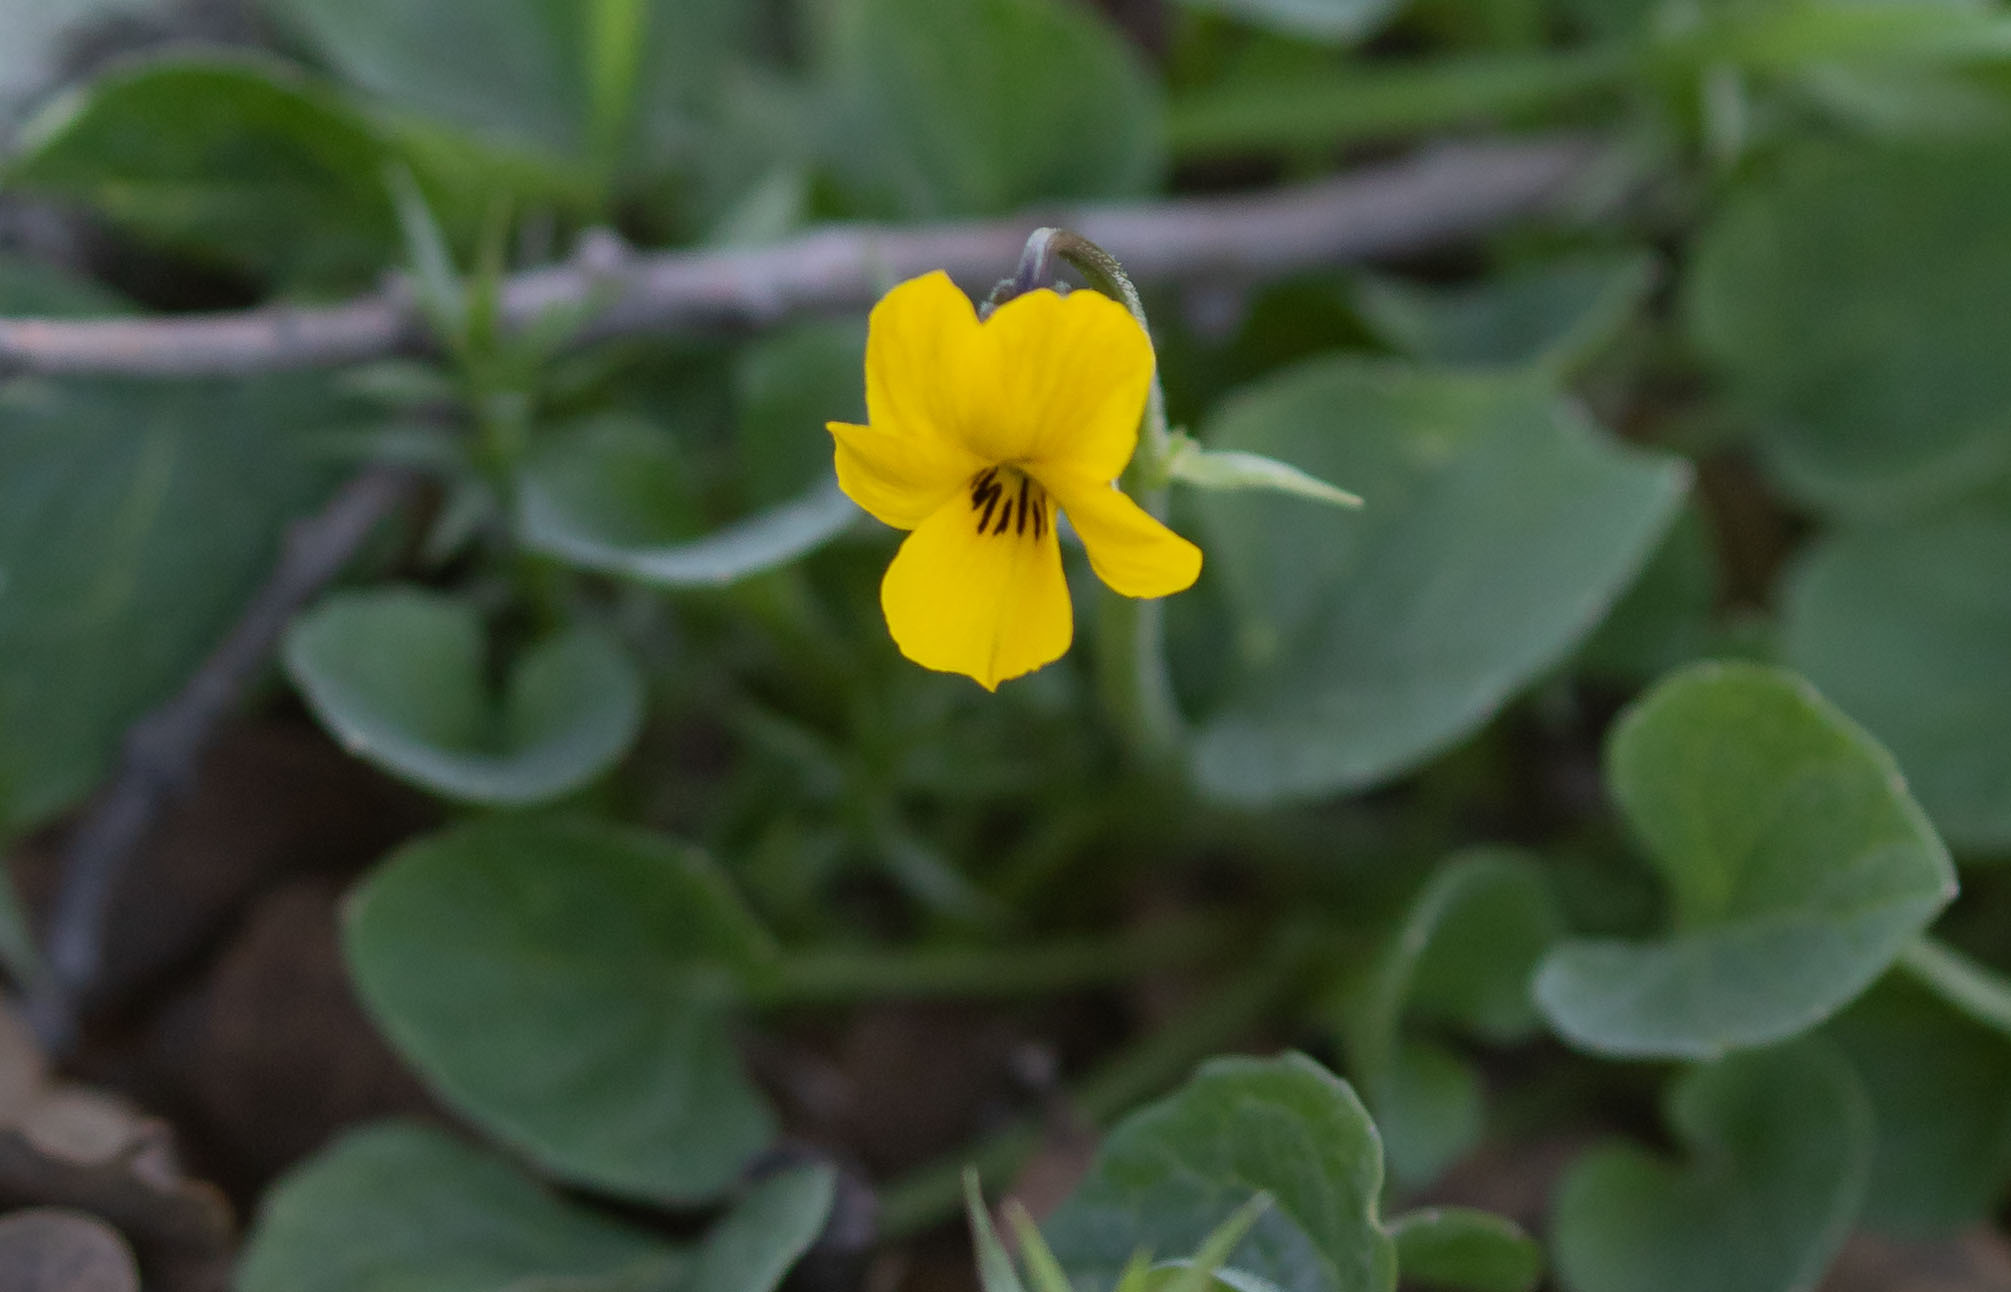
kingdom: Plantae
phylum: Tracheophyta
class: Magnoliopsida
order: Malpighiales
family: Violaceae
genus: Viola
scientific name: Viola pedunculata
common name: California golden violet
